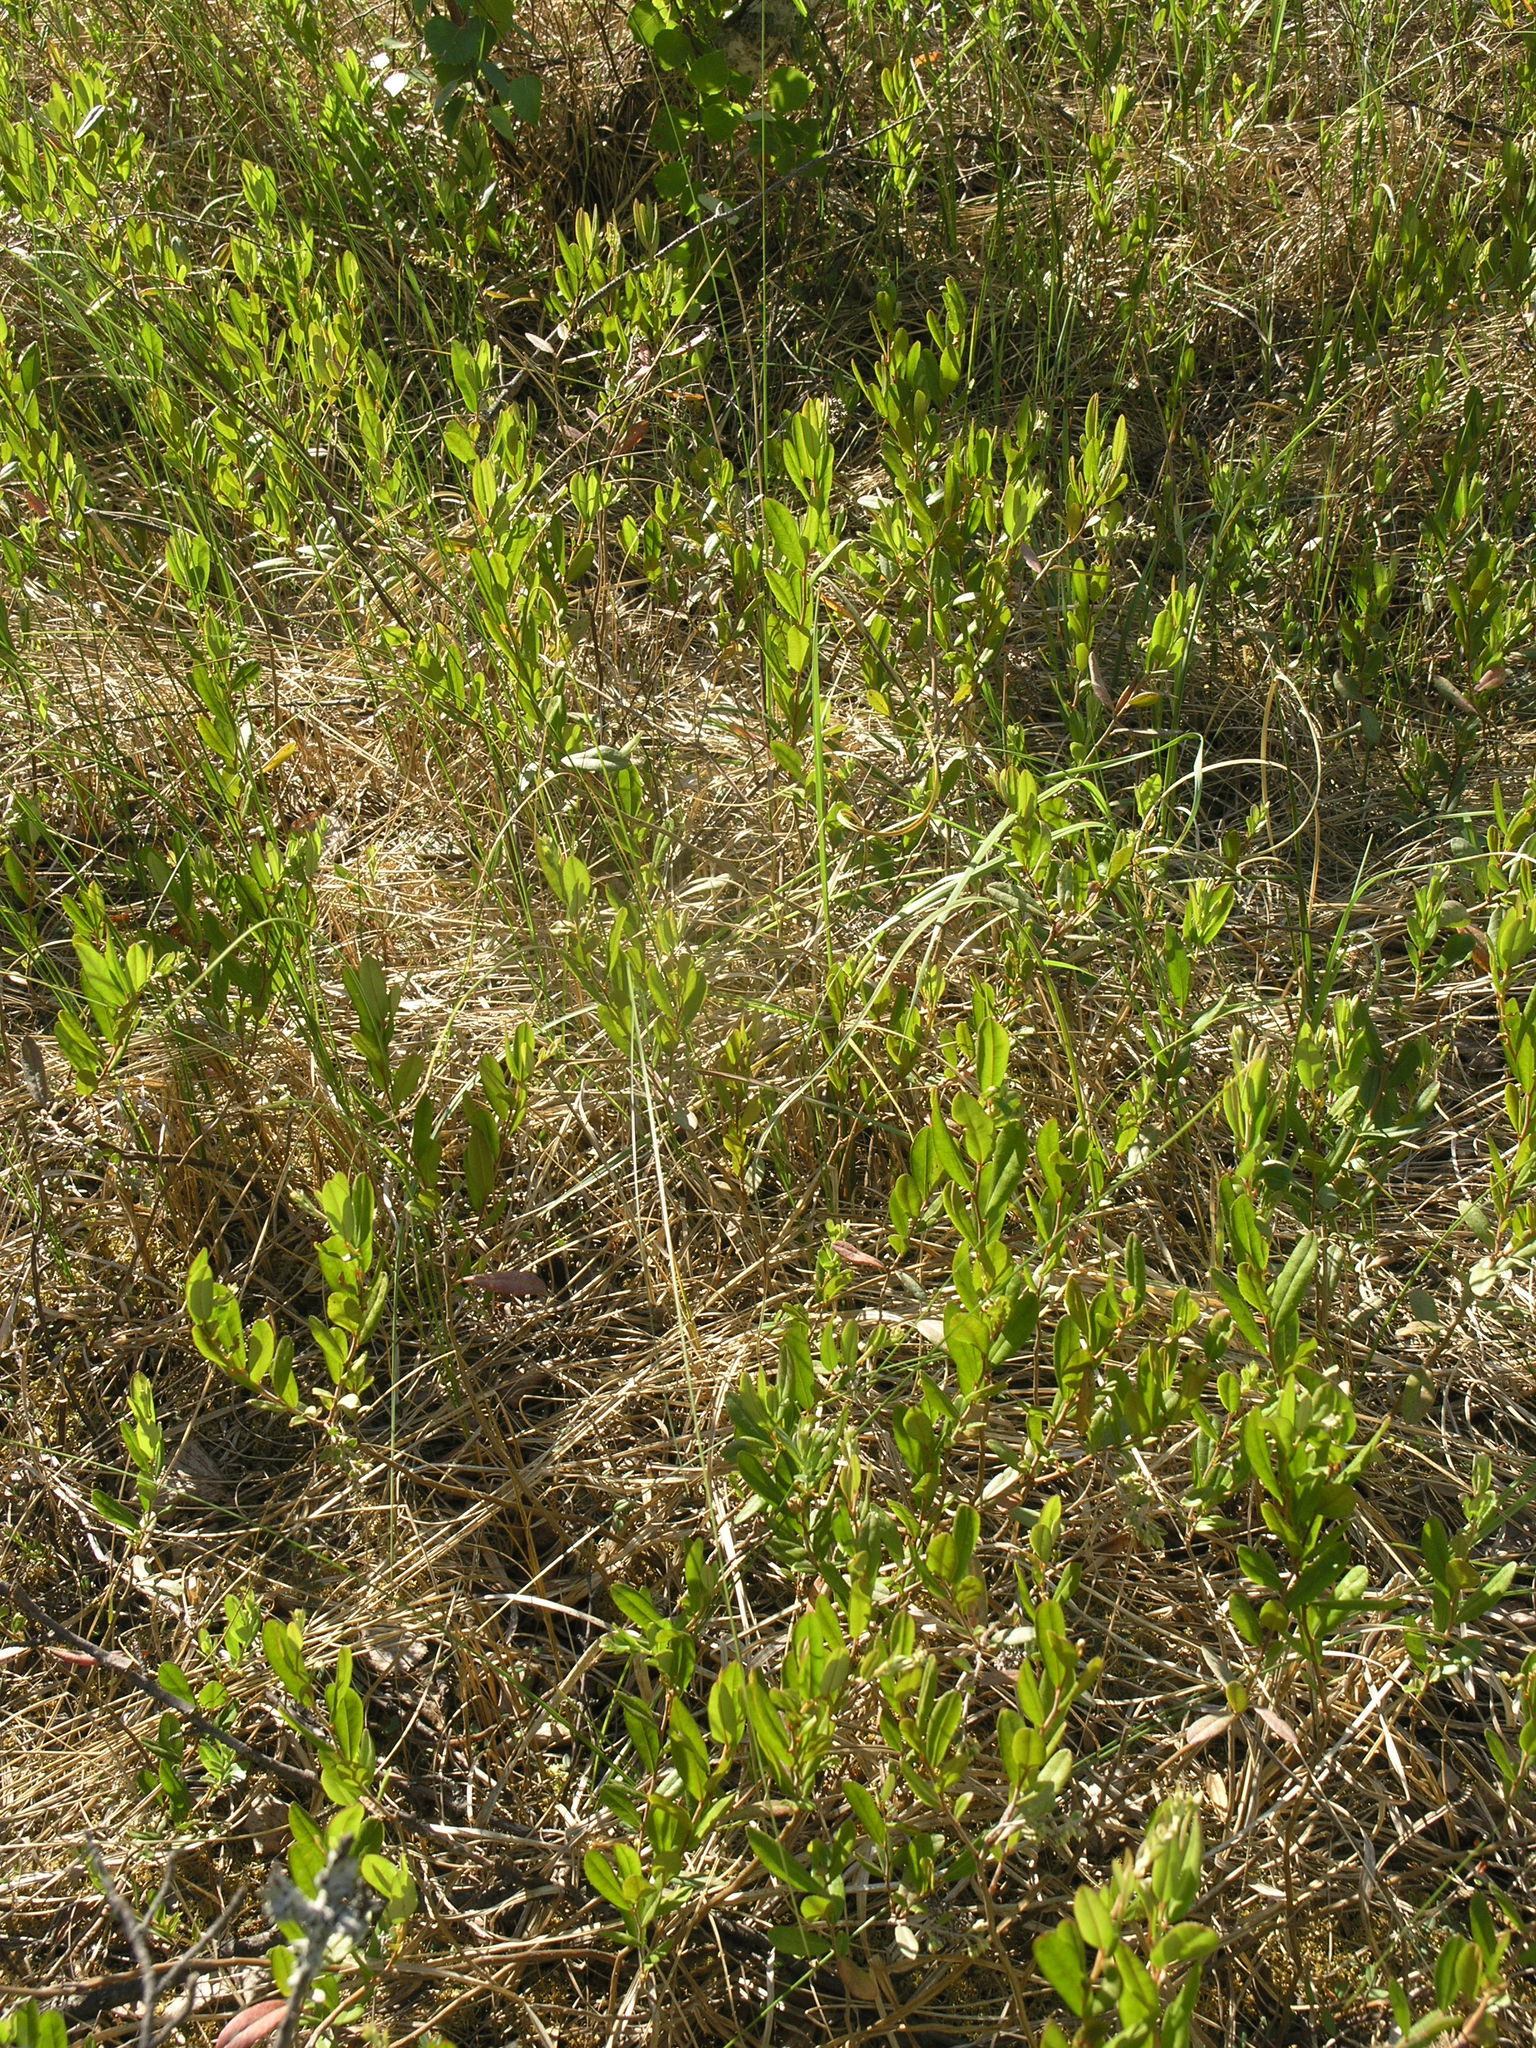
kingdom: Plantae
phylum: Tracheophyta
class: Magnoliopsida
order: Ericales
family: Ericaceae
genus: Chamaedaphne
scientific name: Chamaedaphne calyculata
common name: Leatherleaf
